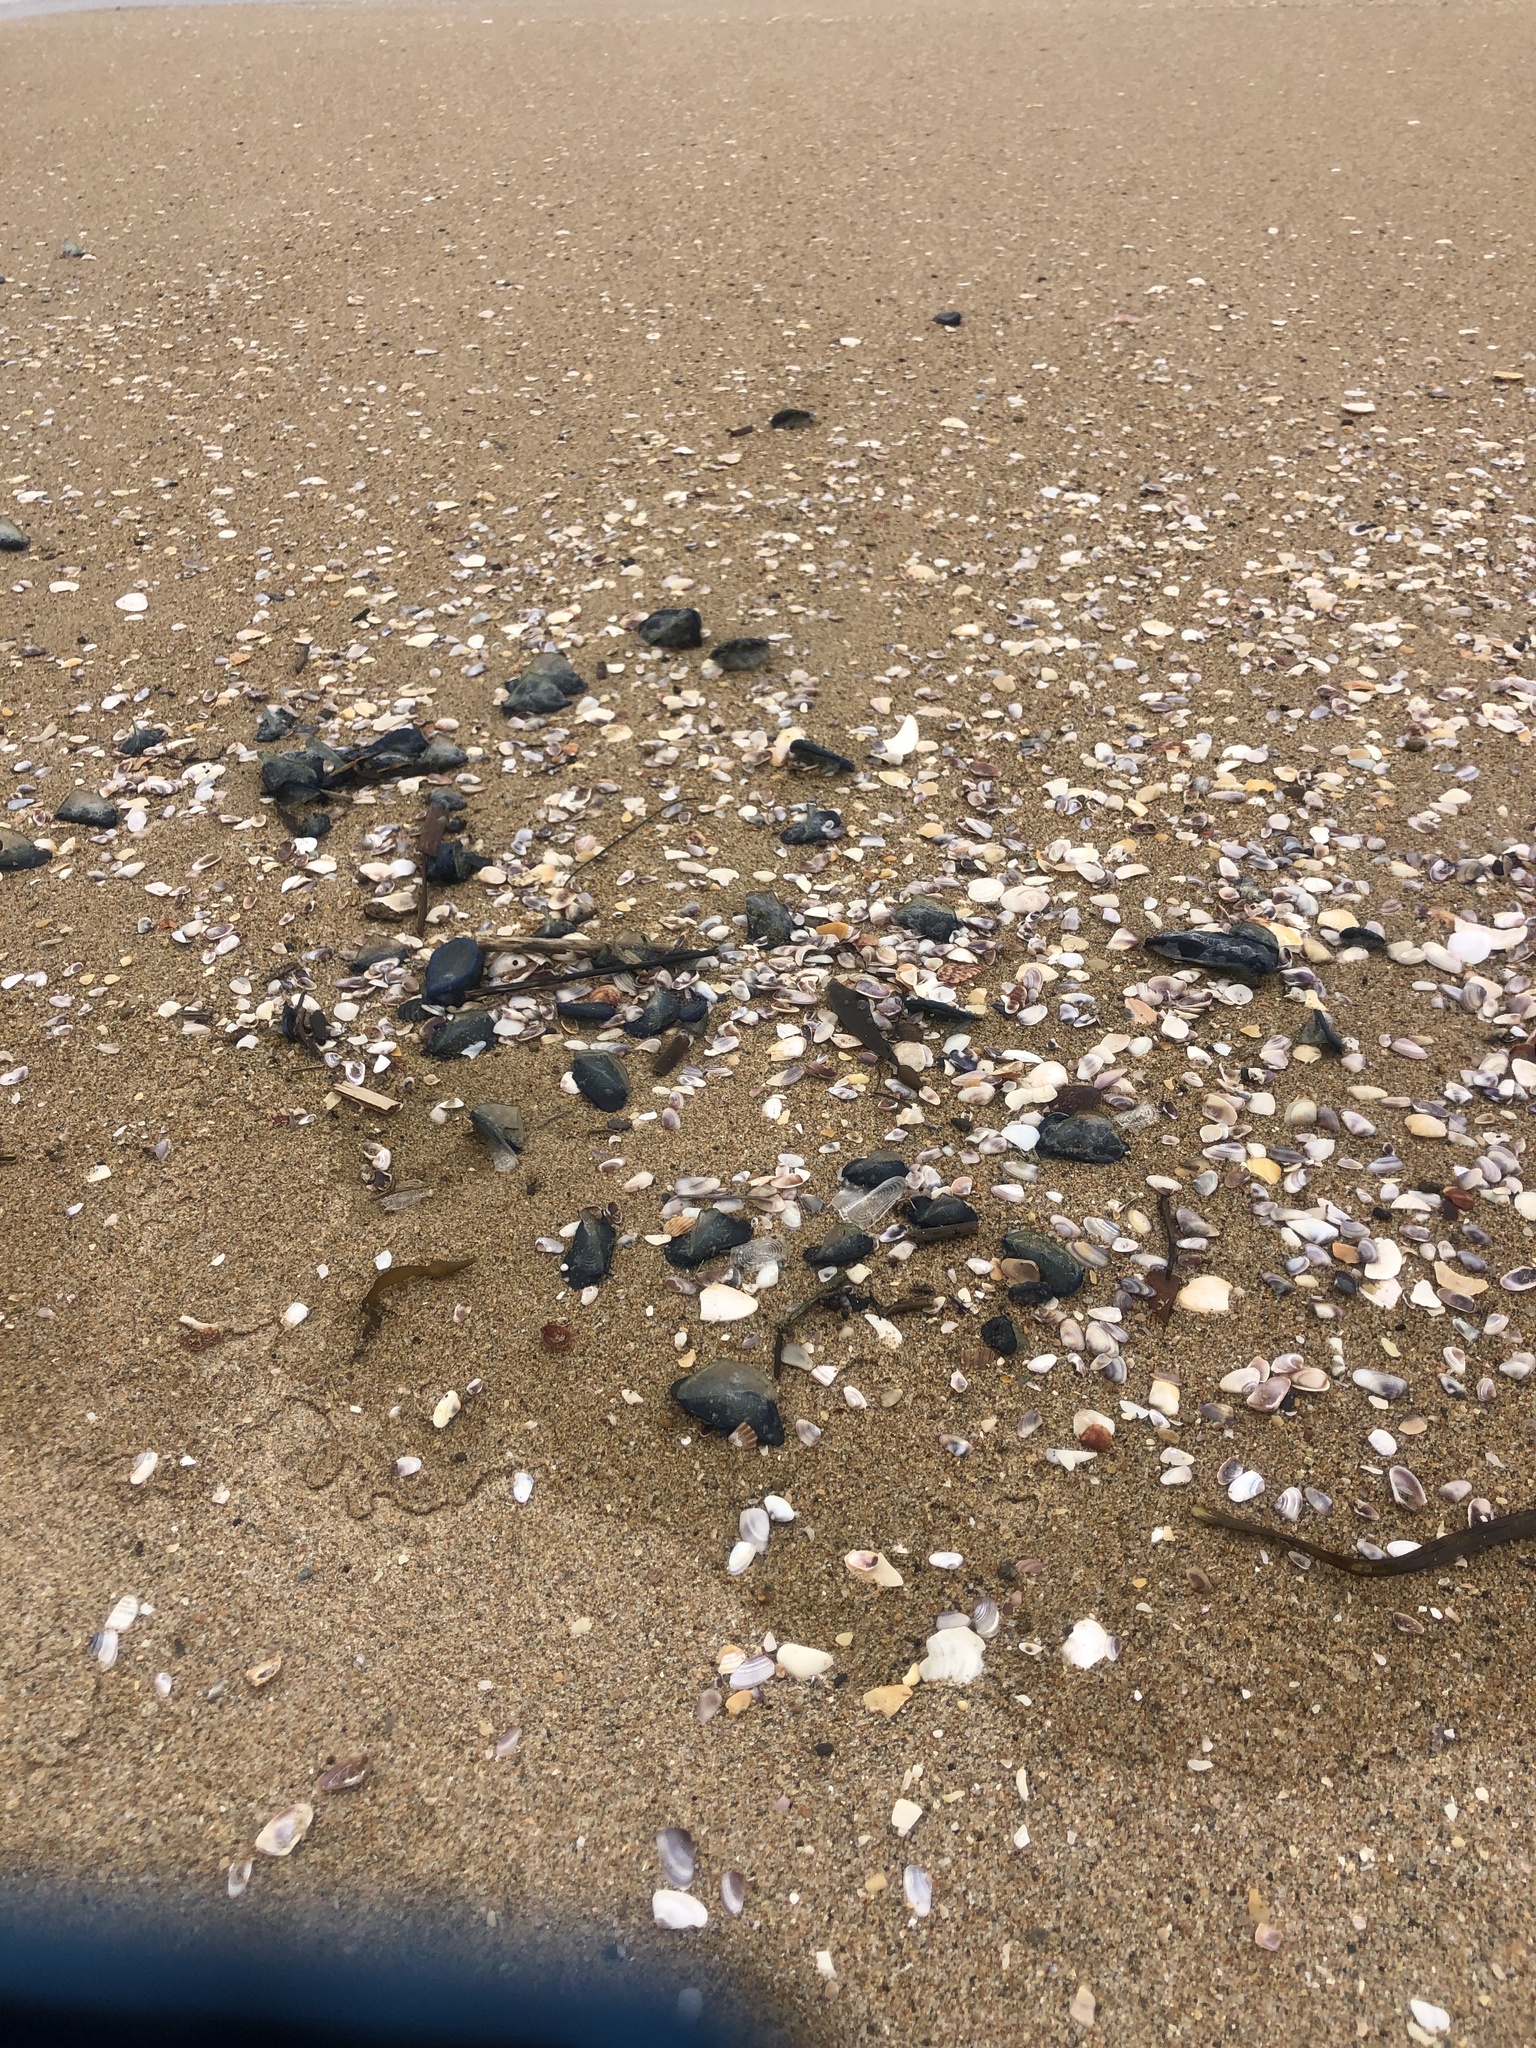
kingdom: Animalia
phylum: Cnidaria
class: Hydrozoa
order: Anthoathecata
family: Porpitidae
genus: Velella
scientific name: Velella velella
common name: By-the-wind-sailor
